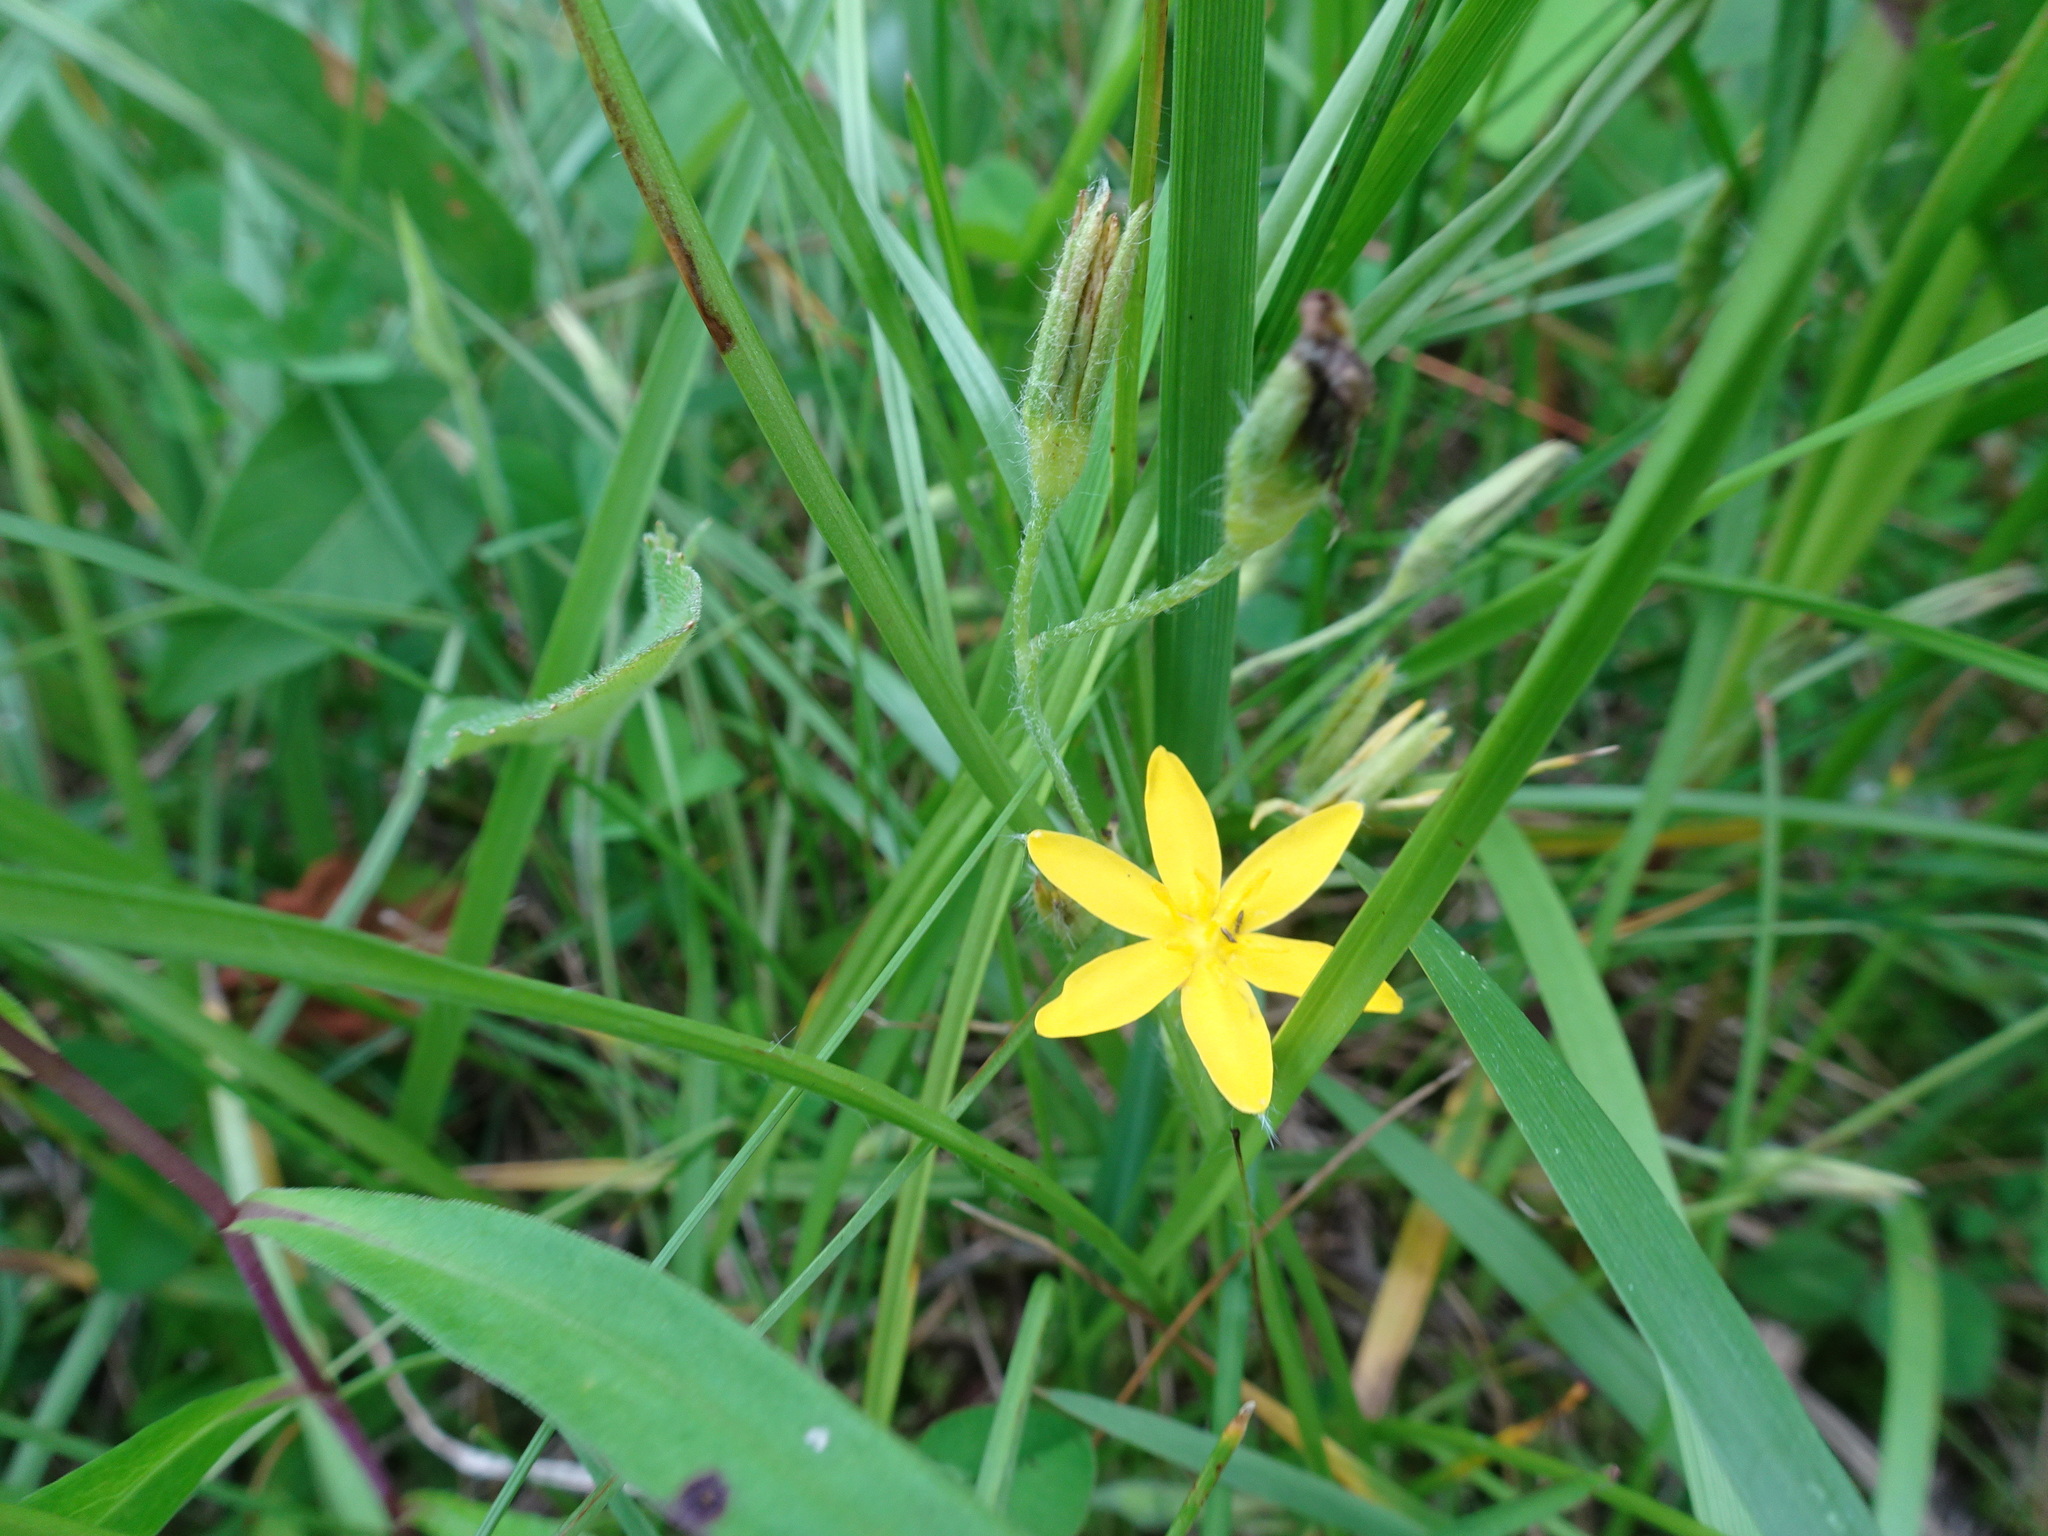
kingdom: Plantae
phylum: Tracheophyta
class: Liliopsida
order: Asparagales
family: Hypoxidaceae
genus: Hypoxis
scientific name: Hypoxis hirsuta
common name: Common goldstar
